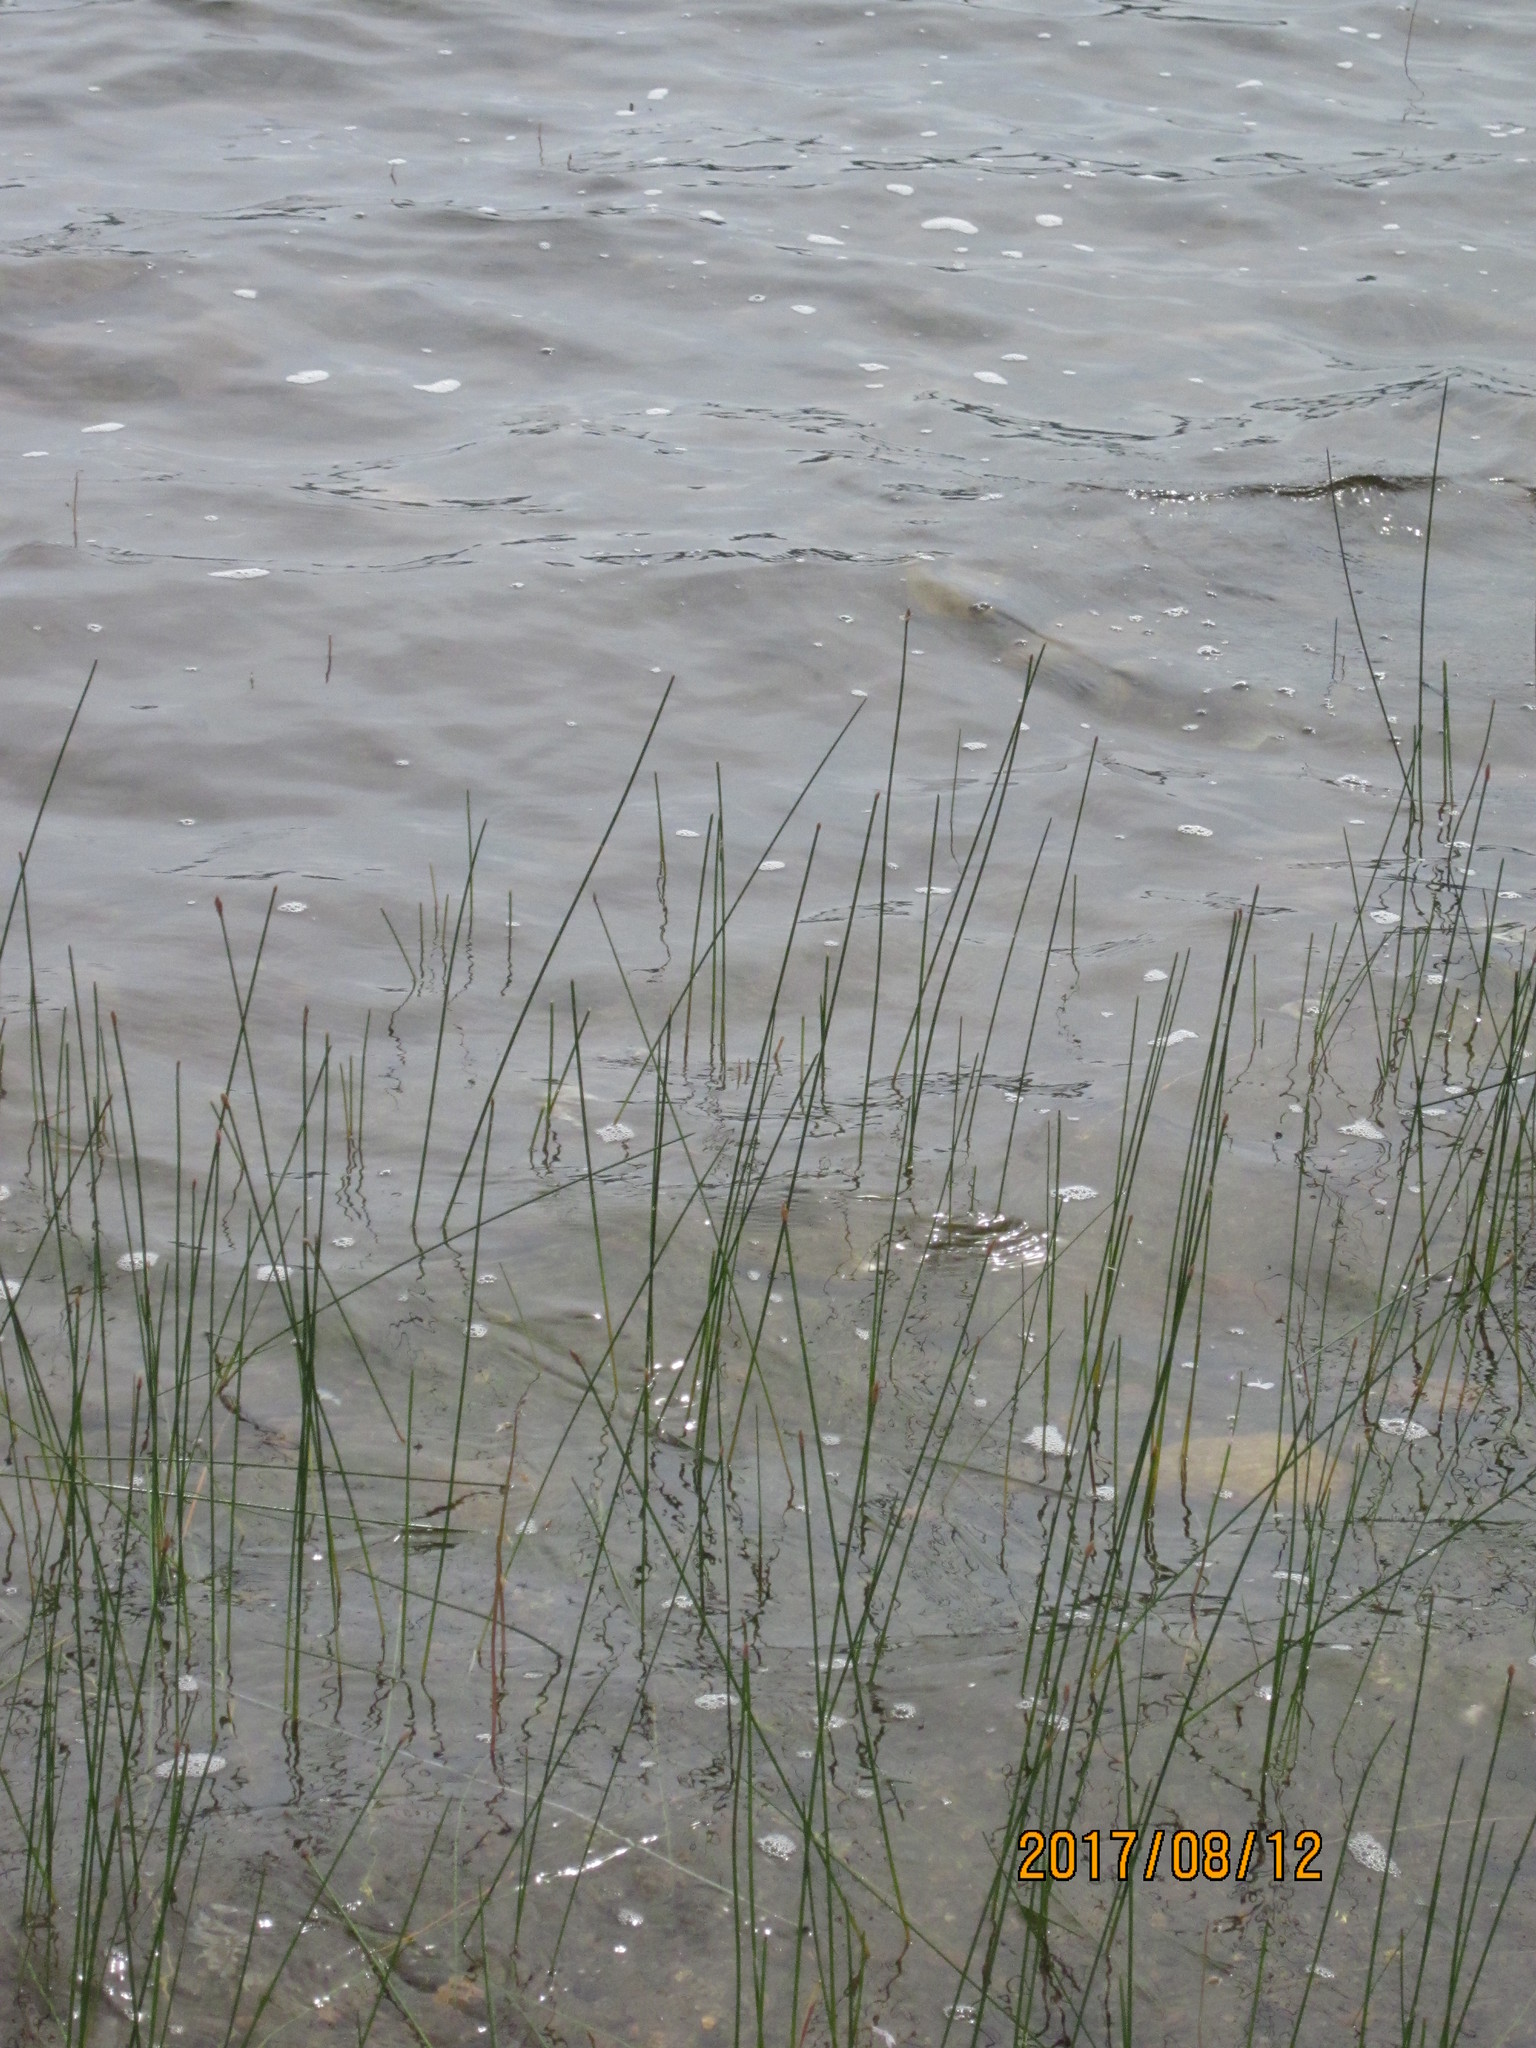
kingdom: Plantae
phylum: Tracheophyta
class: Liliopsida
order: Poales
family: Cyperaceae
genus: Eleocharis
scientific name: Eleocharis palustris
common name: Common spike-rush
